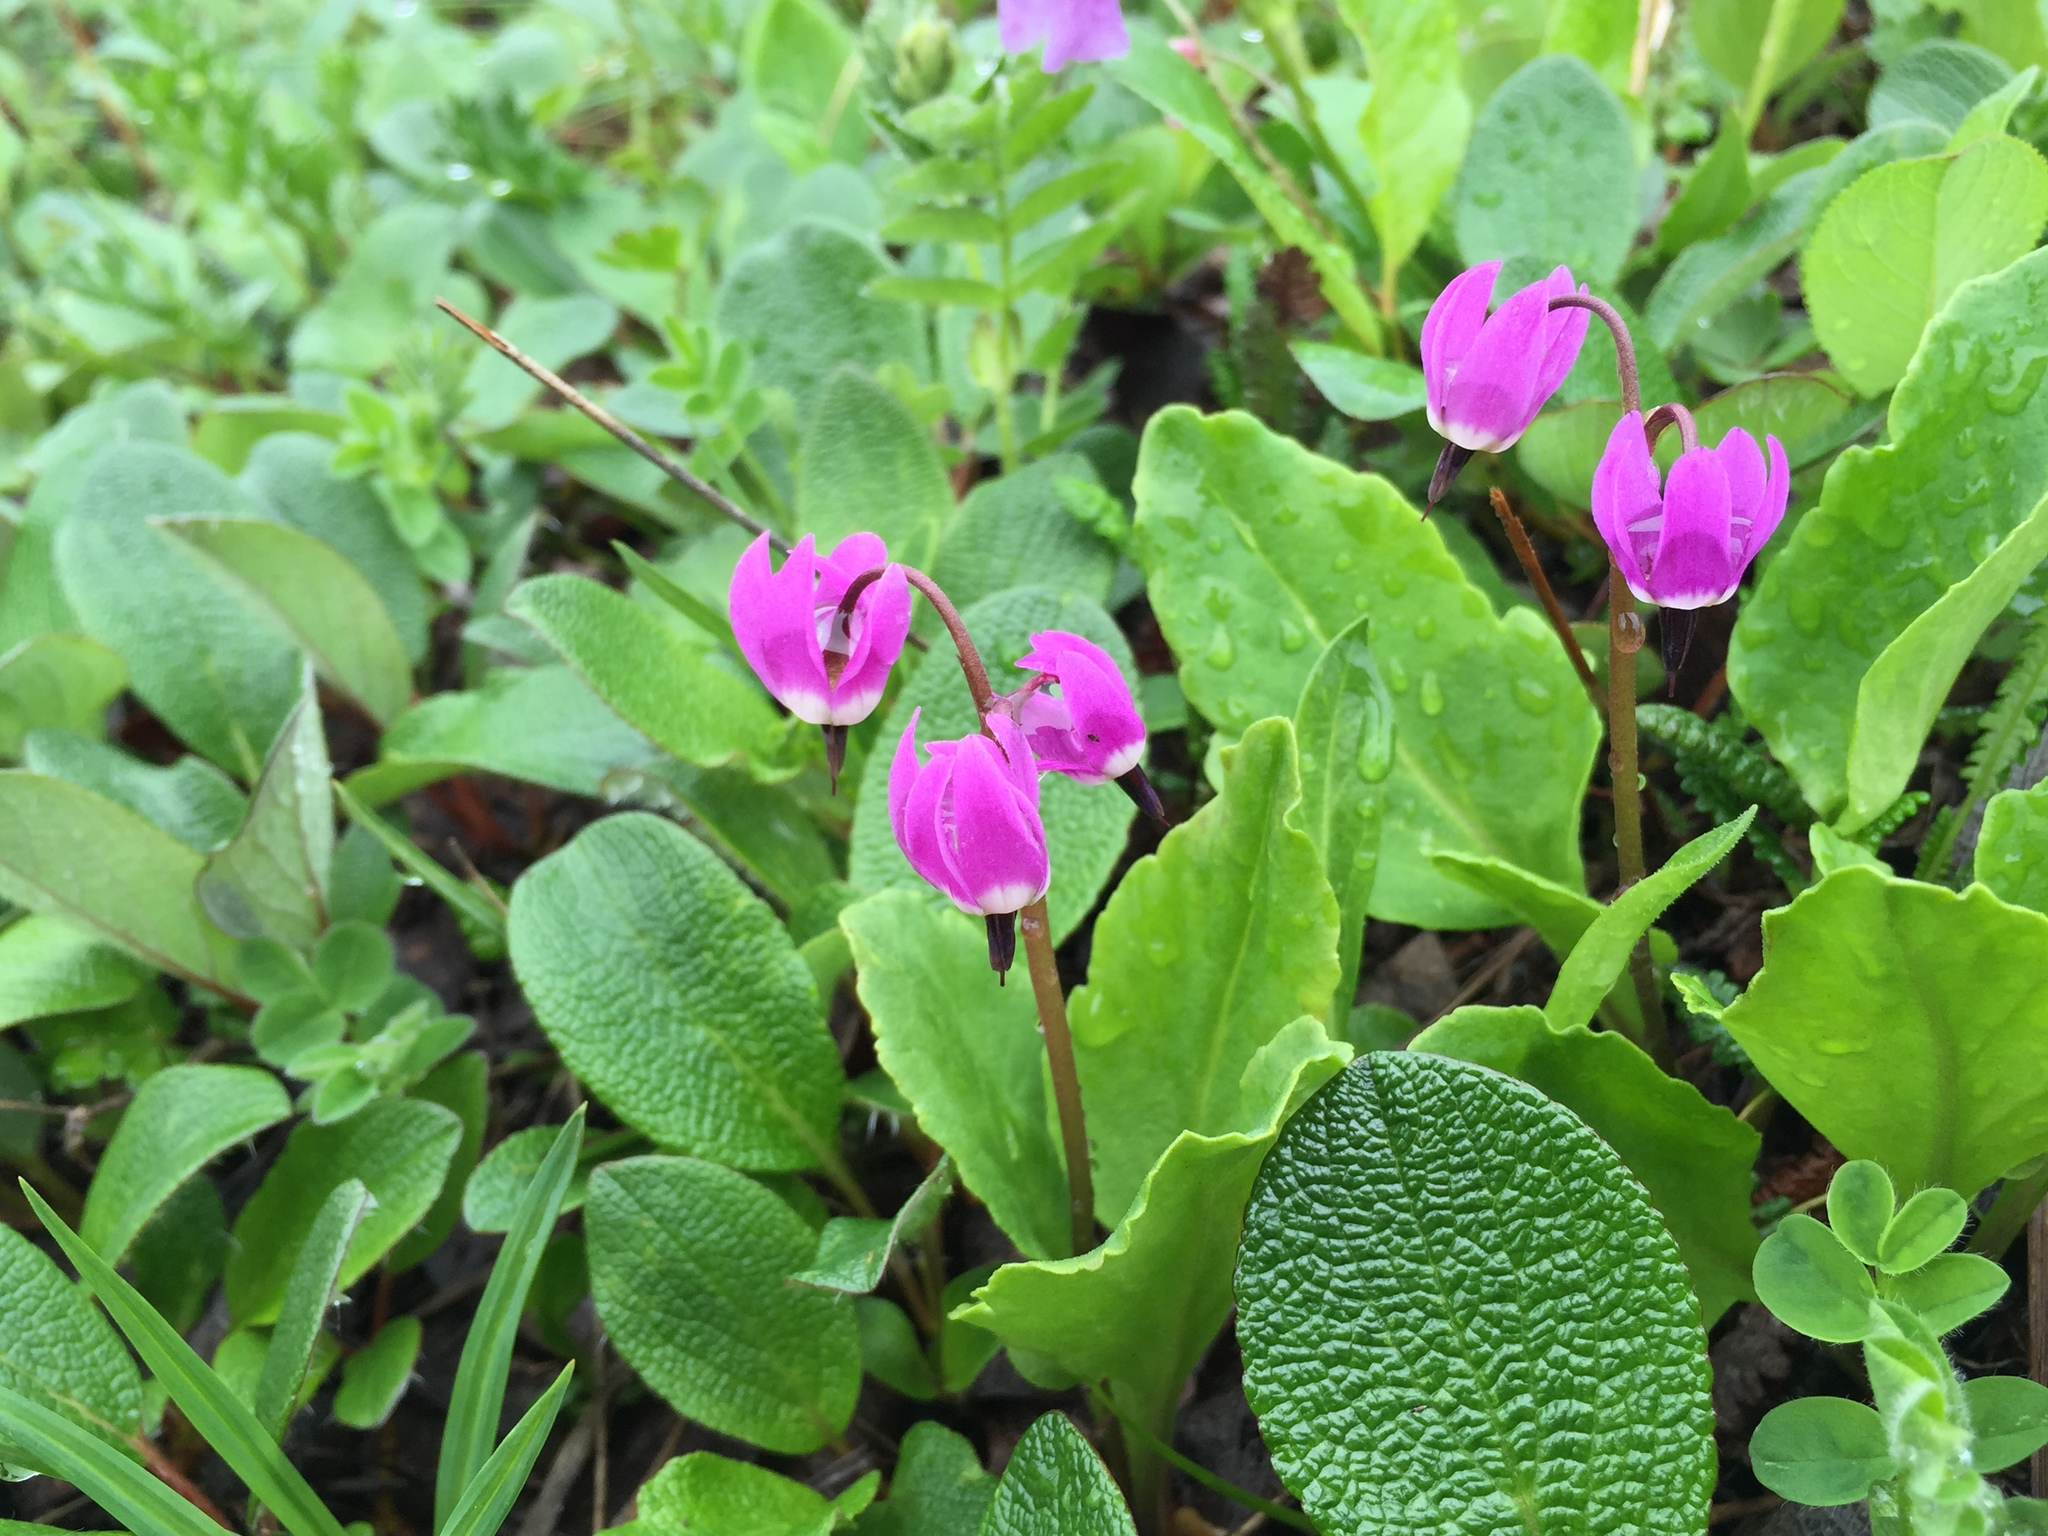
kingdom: Plantae
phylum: Tracheophyta
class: Magnoliopsida
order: Ericales
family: Primulaceae
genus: Dodecatheon
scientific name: Dodecatheon frigidum
